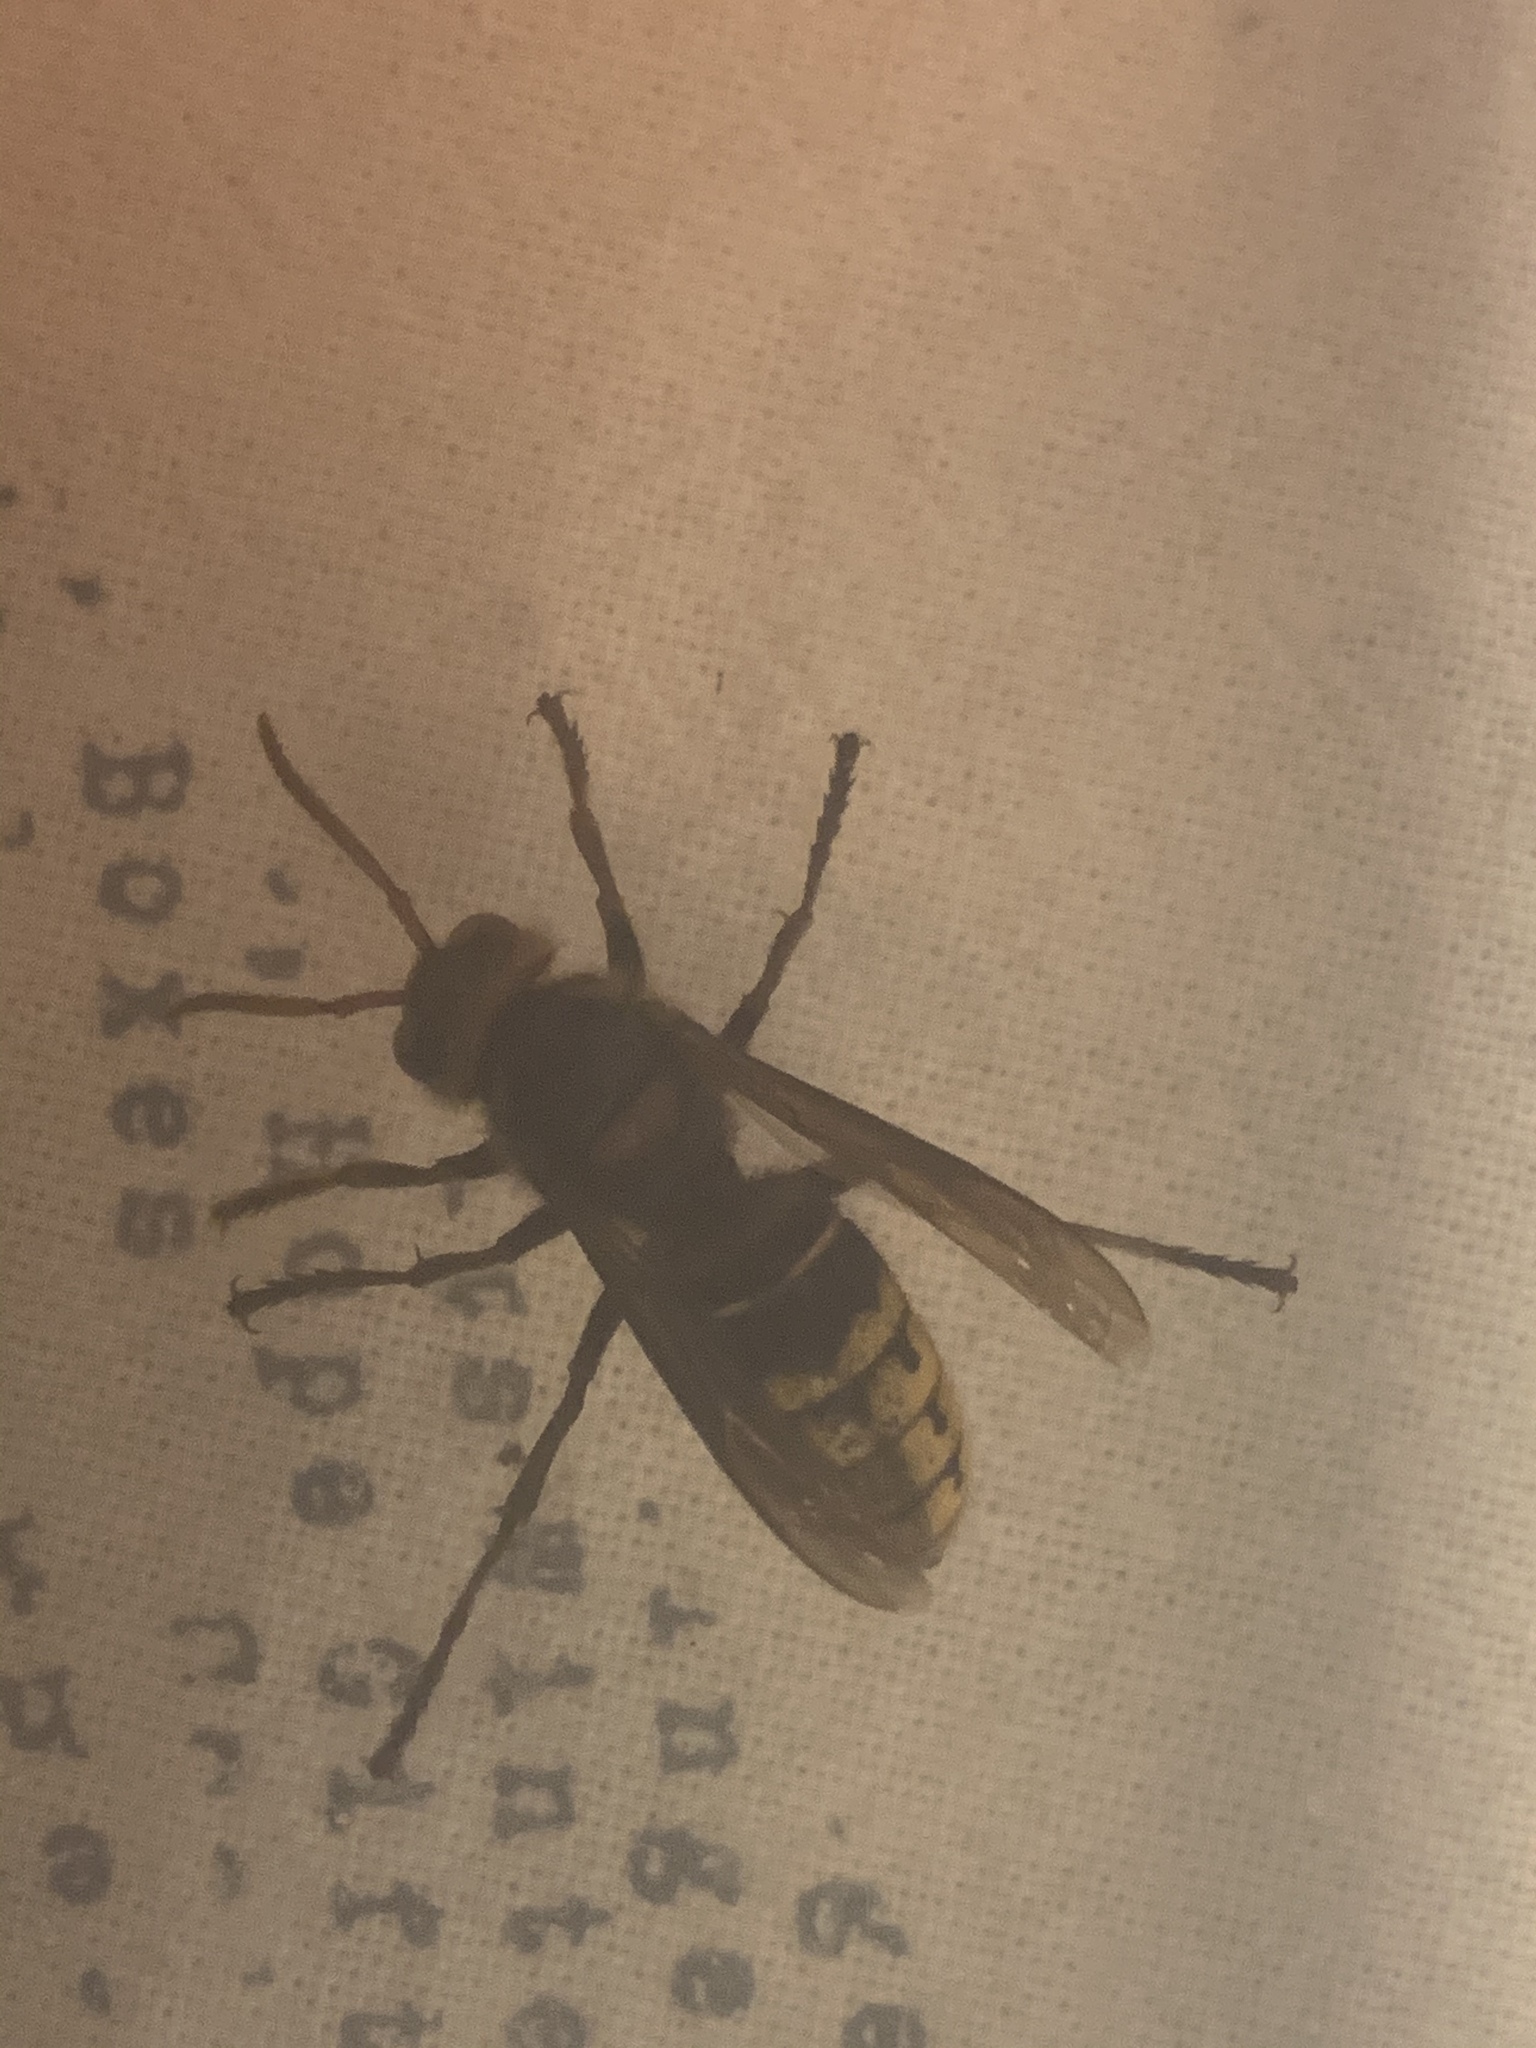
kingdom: Animalia
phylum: Arthropoda
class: Insecta
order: Hymenoptera
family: Vespidae
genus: Vespa
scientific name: Vespa crabro
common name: Hornet
